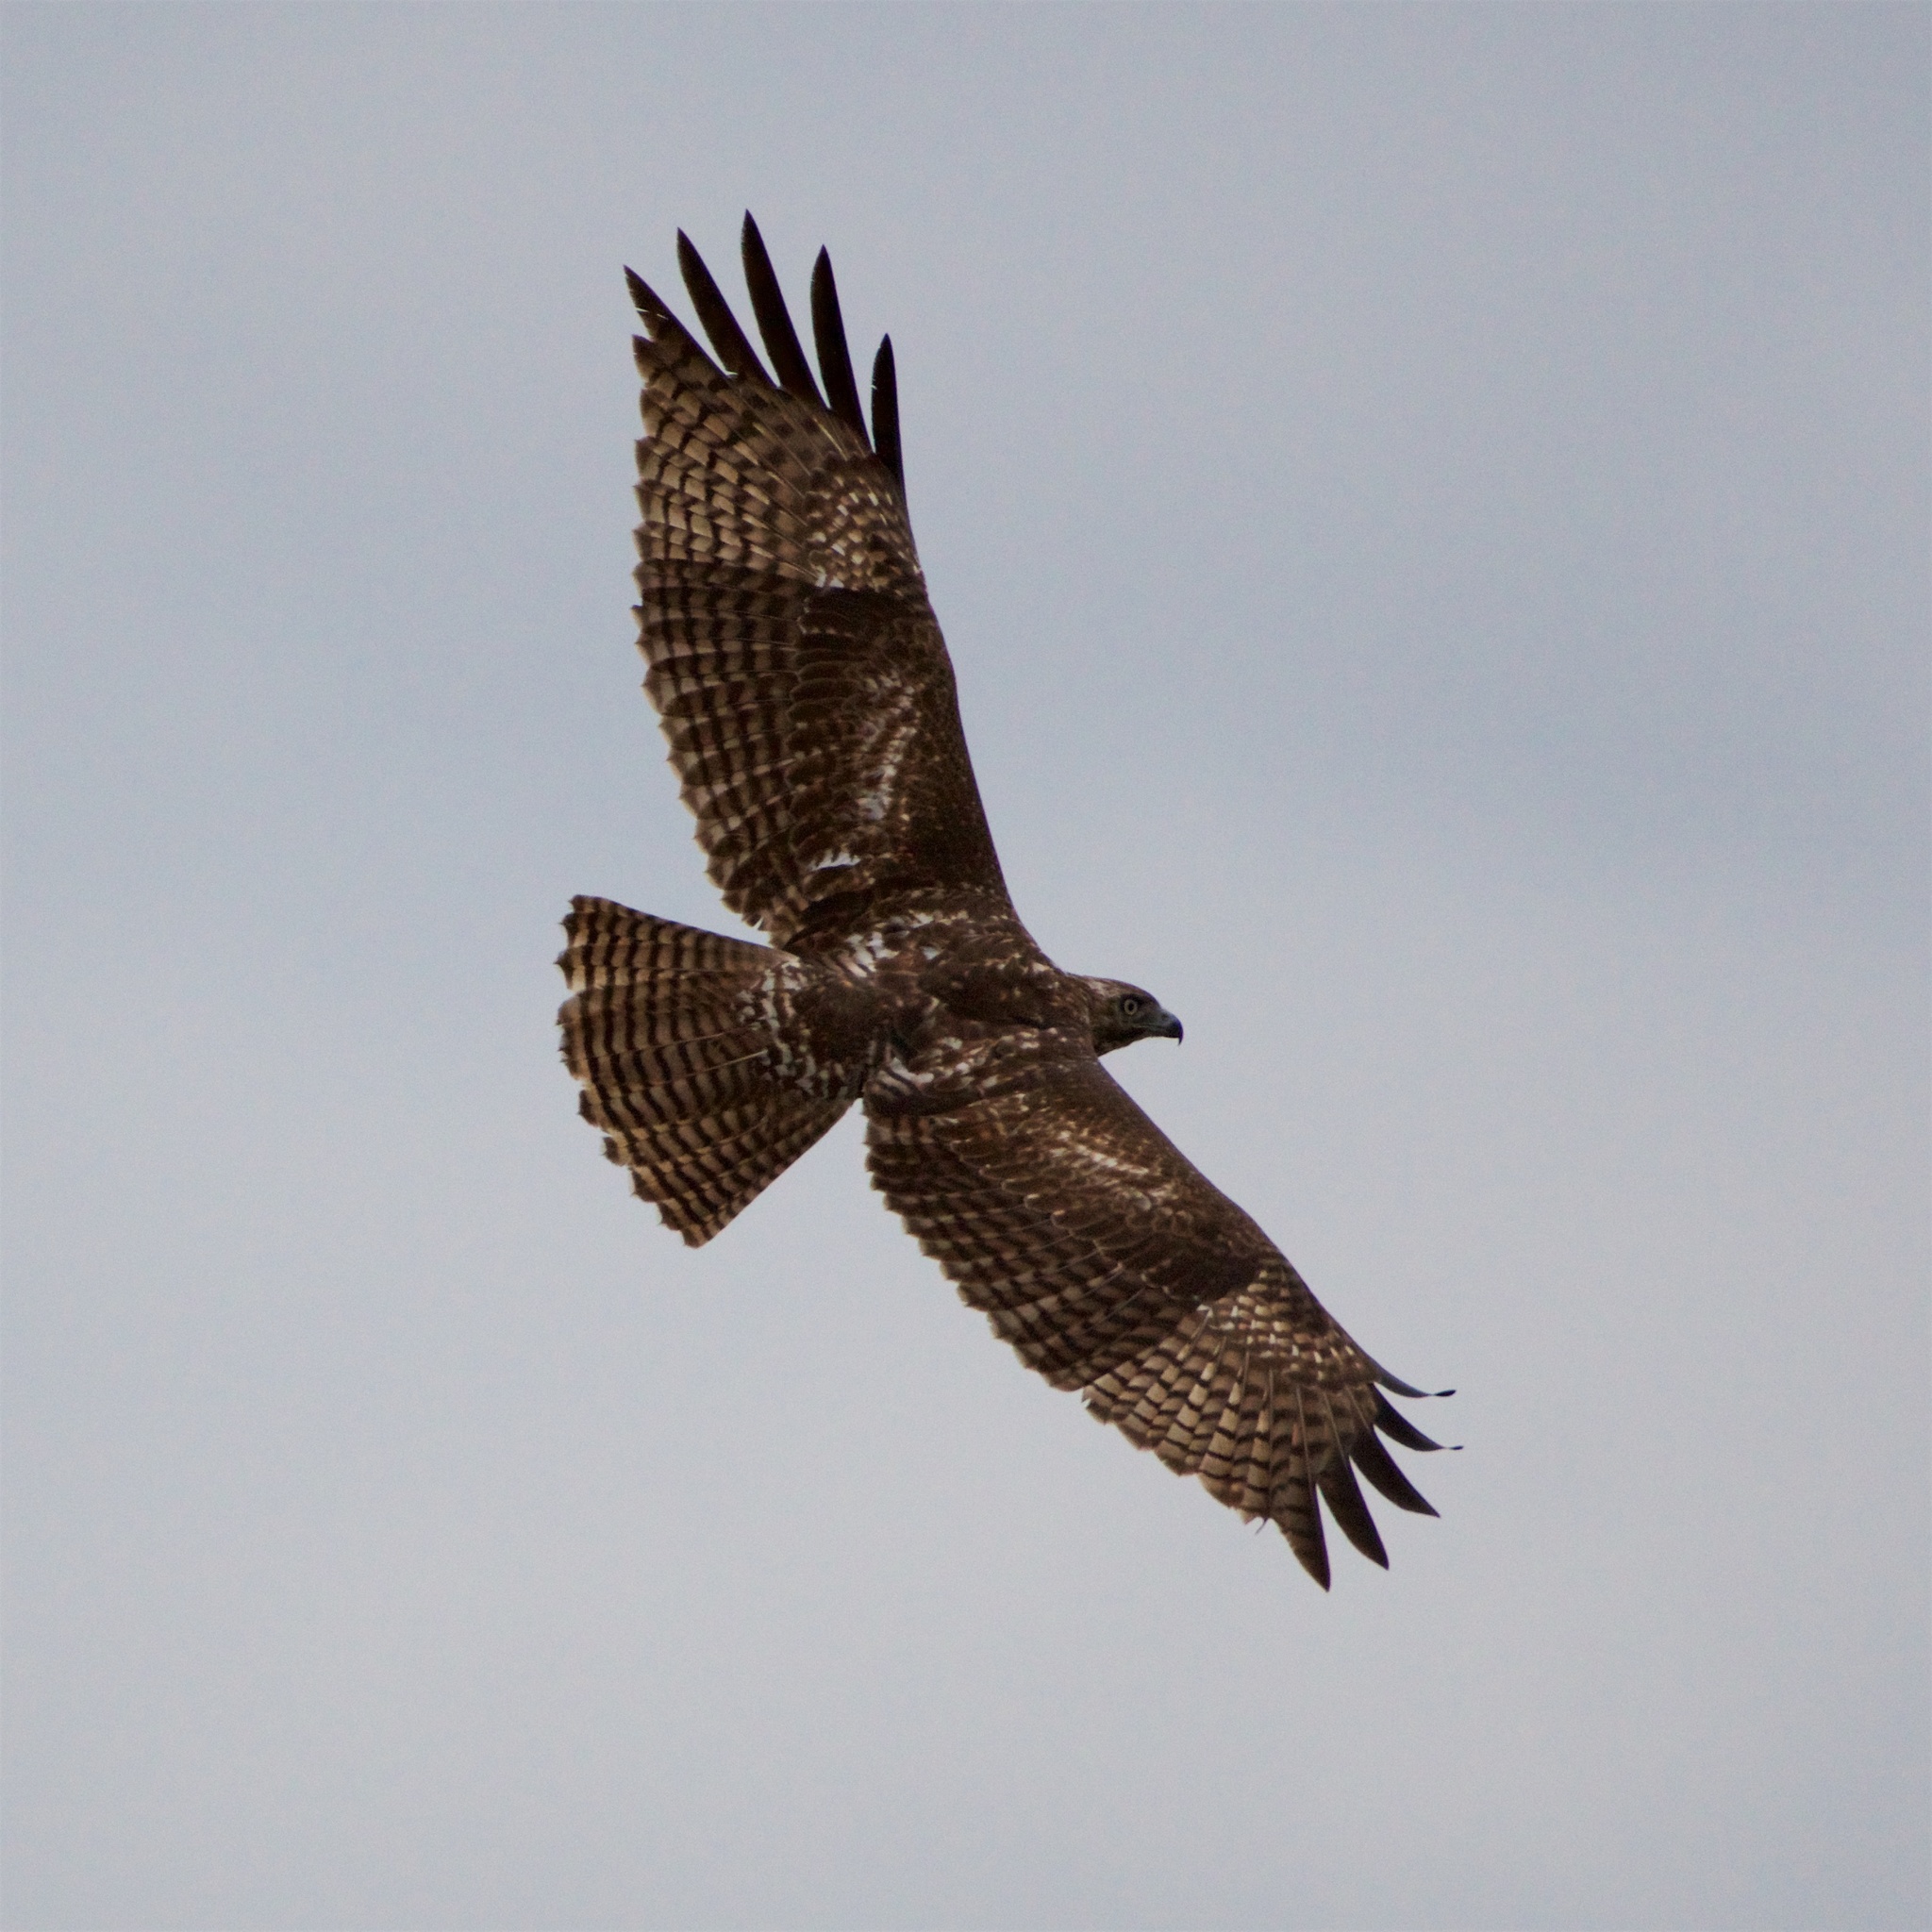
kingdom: Animalia
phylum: Chordata
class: Aves
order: Accipitriformes
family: Accipitridae
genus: Buteo
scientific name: Buteo jamaicensis
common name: Red-tailed hawk
